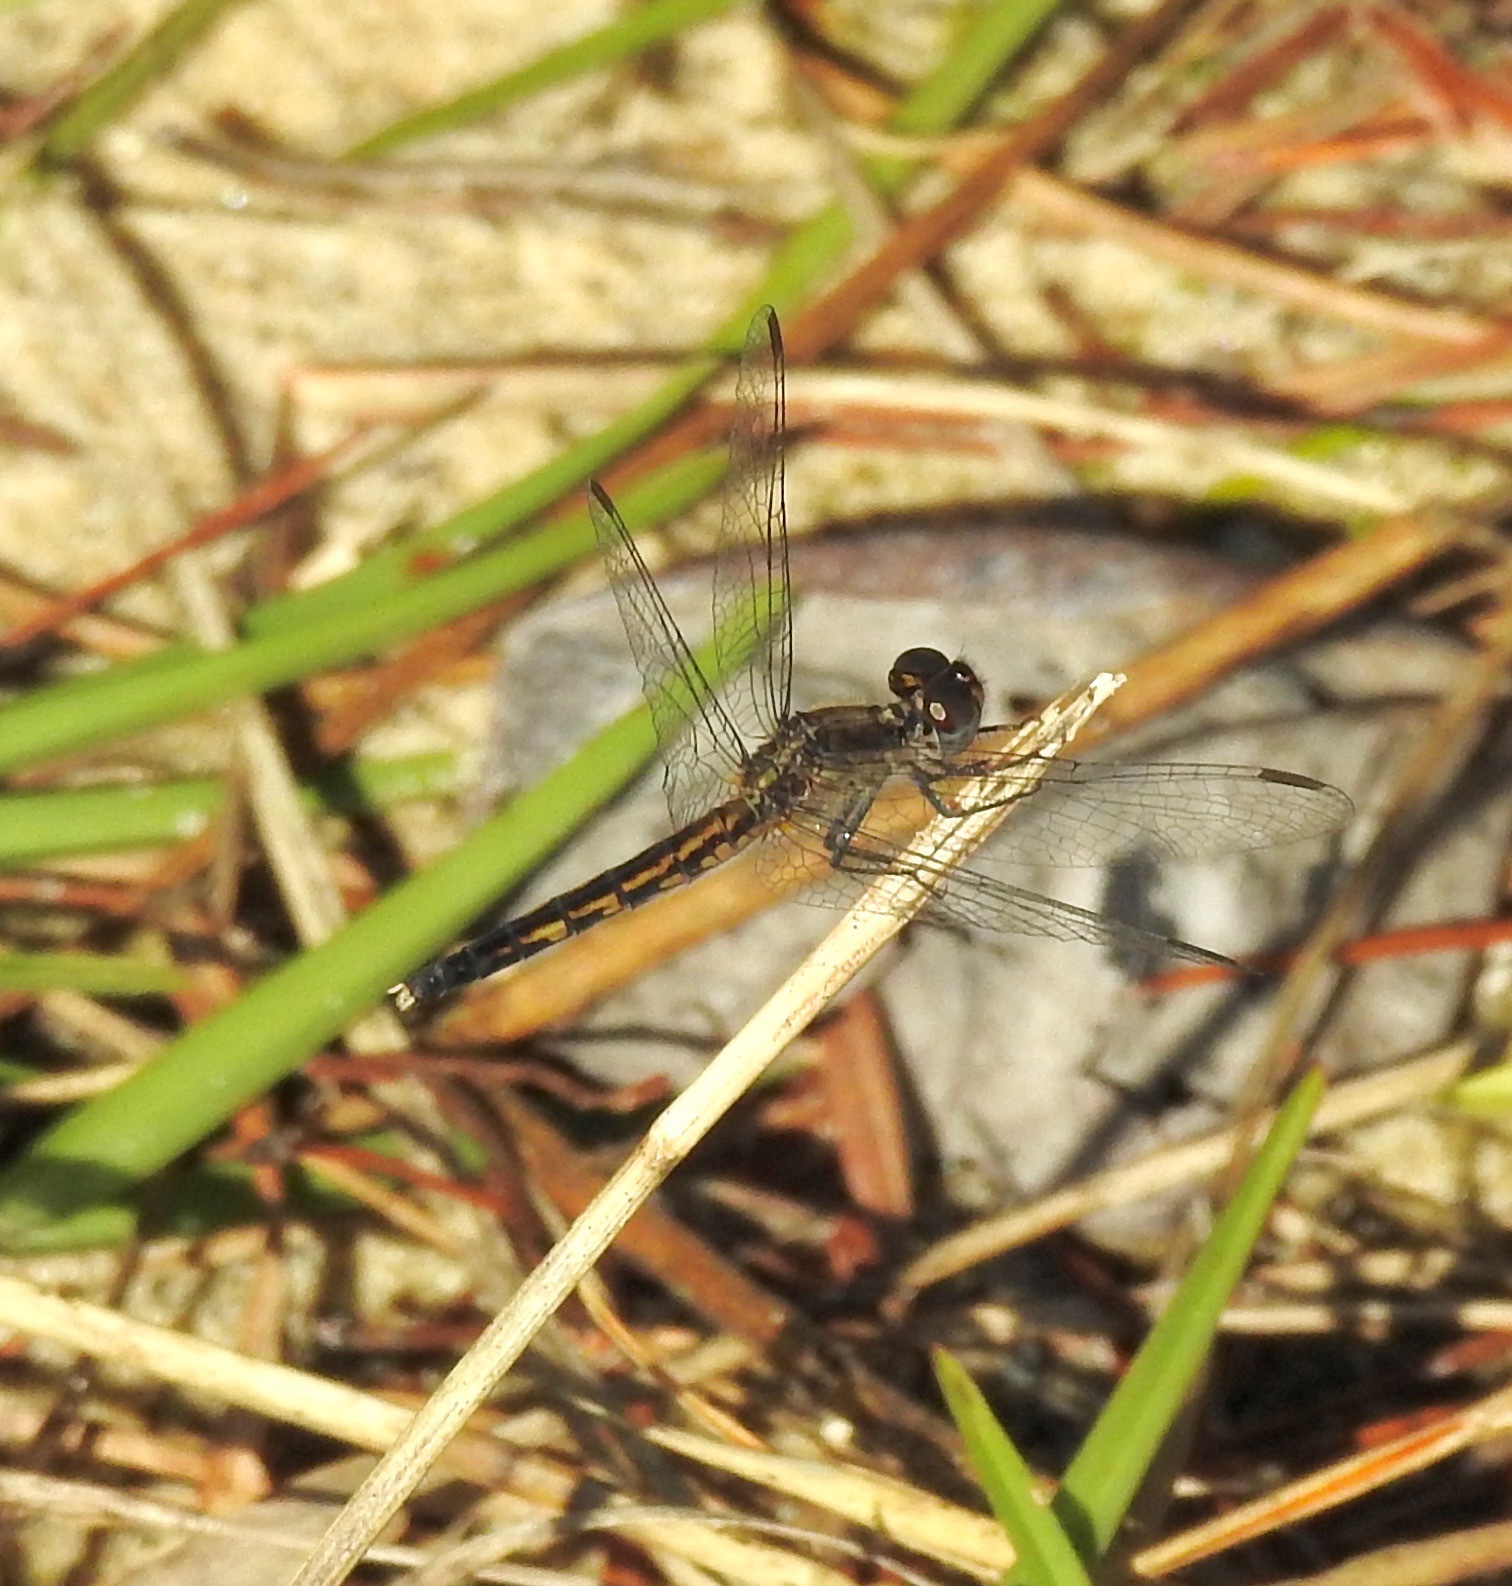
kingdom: Animalia
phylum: Arthropoda
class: Insecta
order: Odonata
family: Libellulidae
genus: Erythrodiplax
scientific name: Erythrodiplax minuscula
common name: Little blue dragonlet
